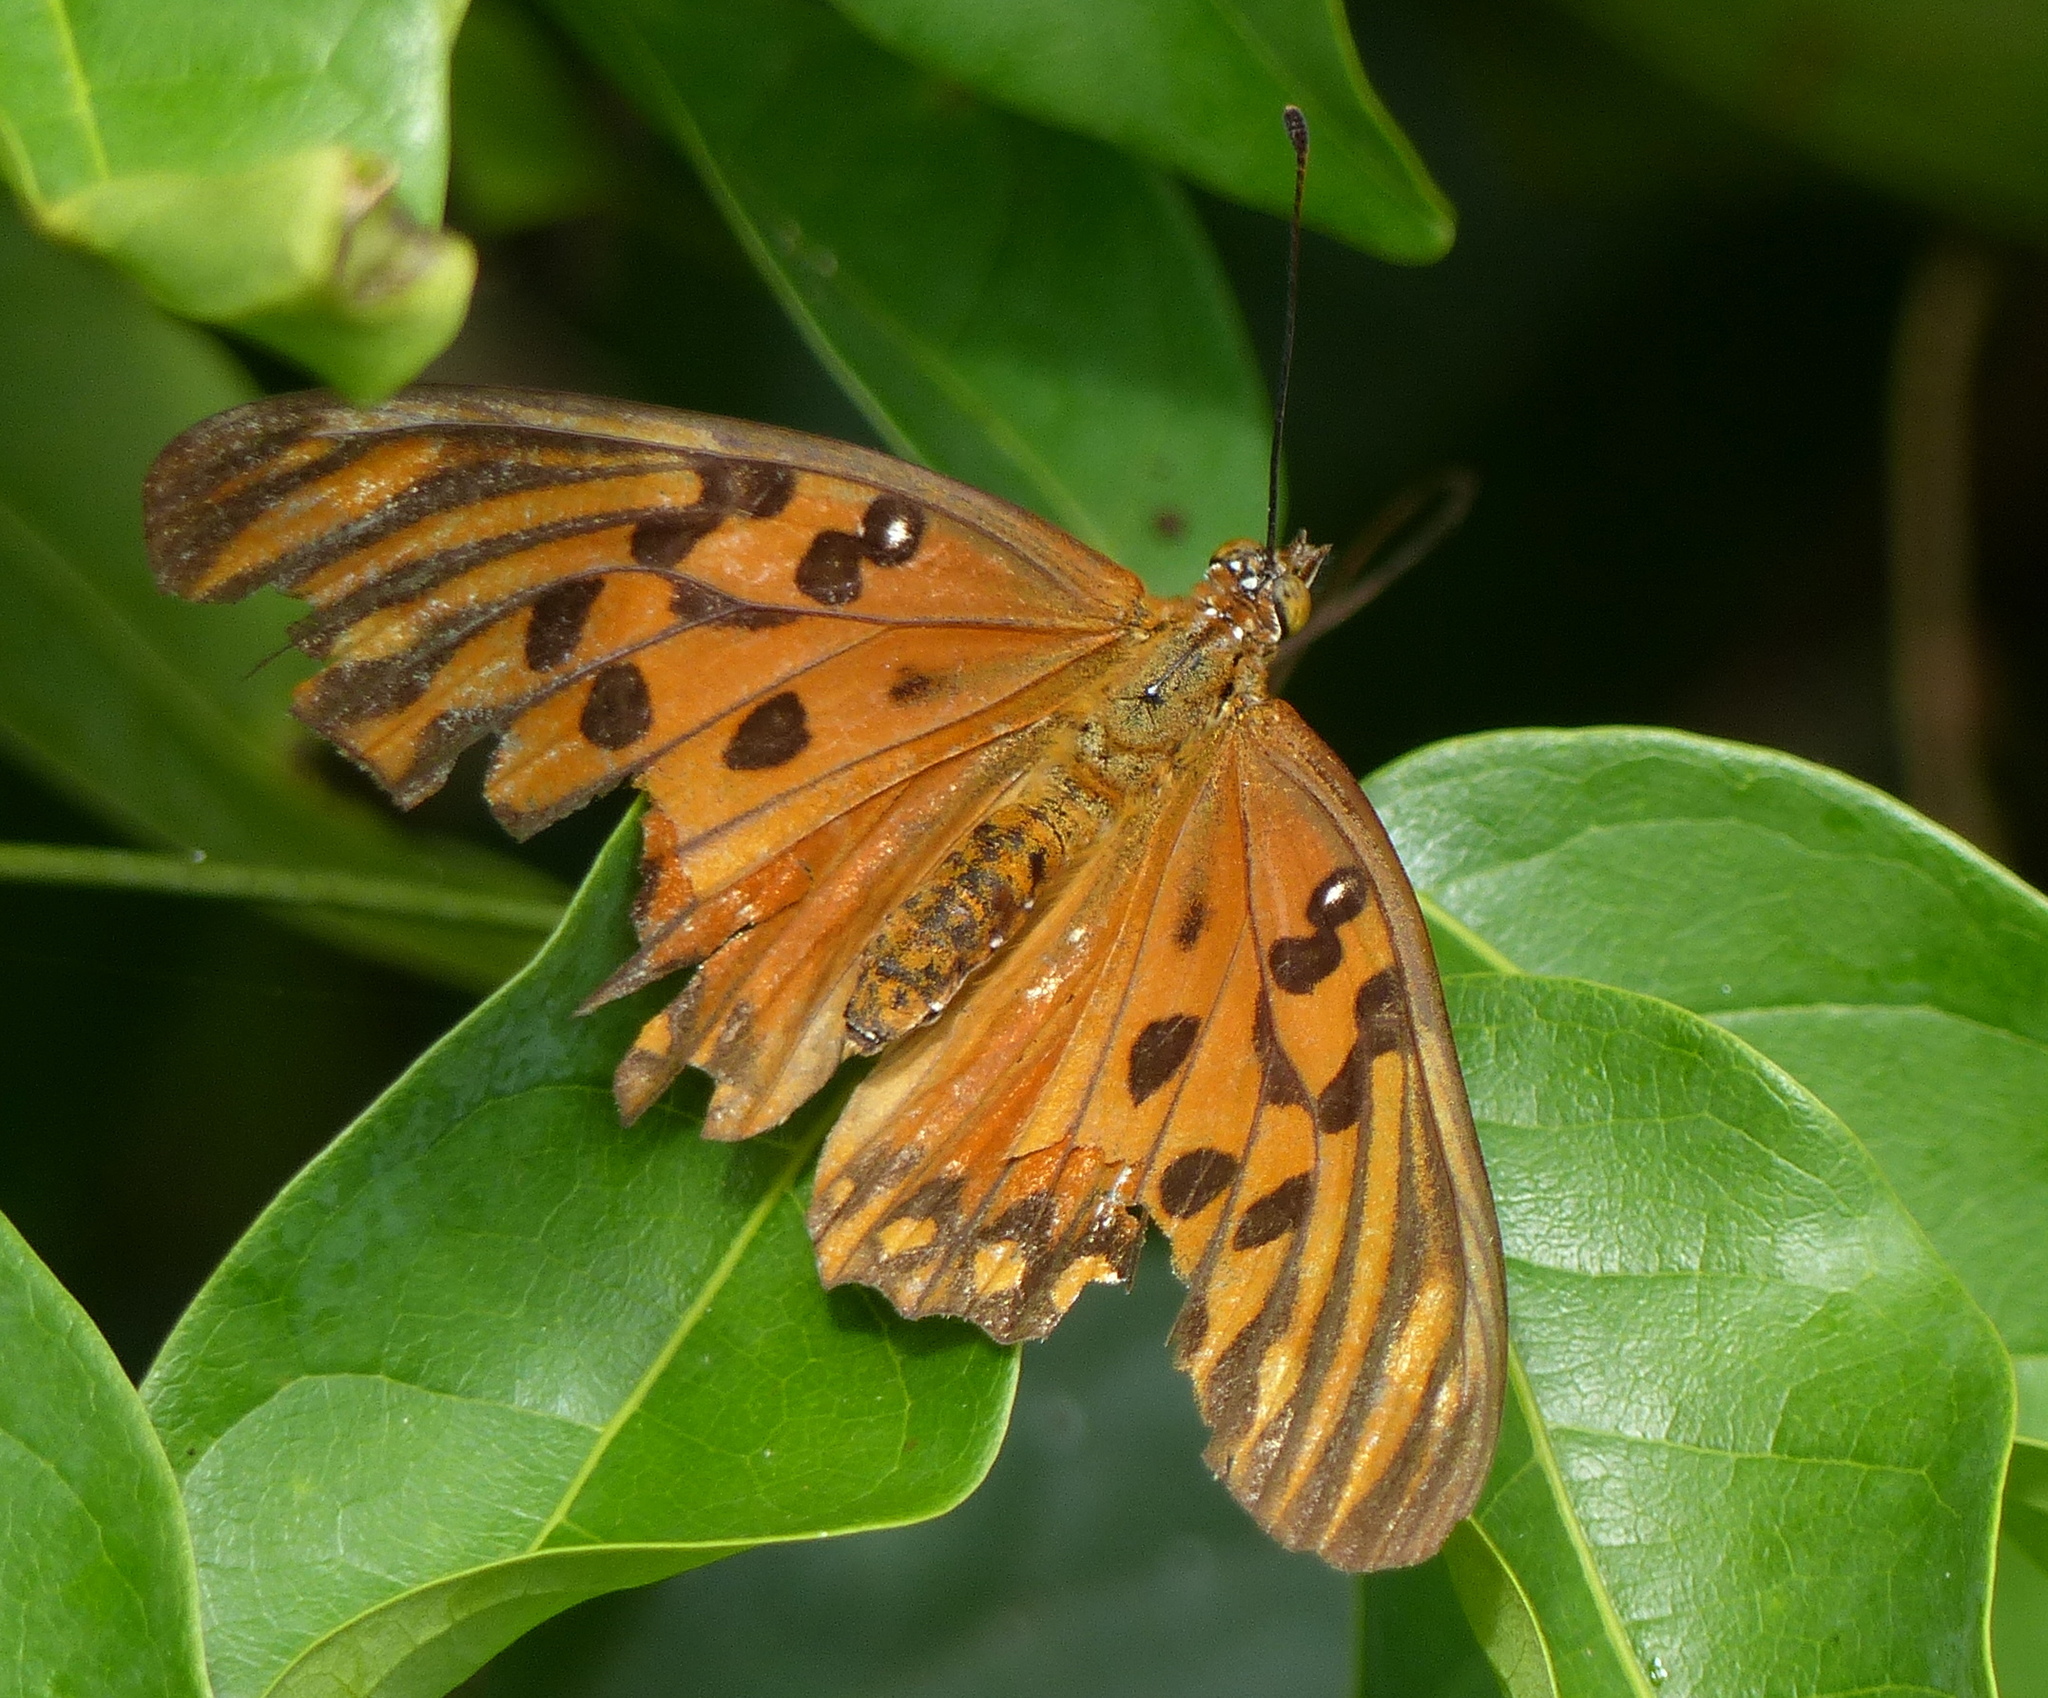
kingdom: Animalia
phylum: Arthropoda
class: Insecta
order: Lepidoptera
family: Nymphalidae
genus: Dione
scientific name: Dione vanillae
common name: Gulf fritillary
